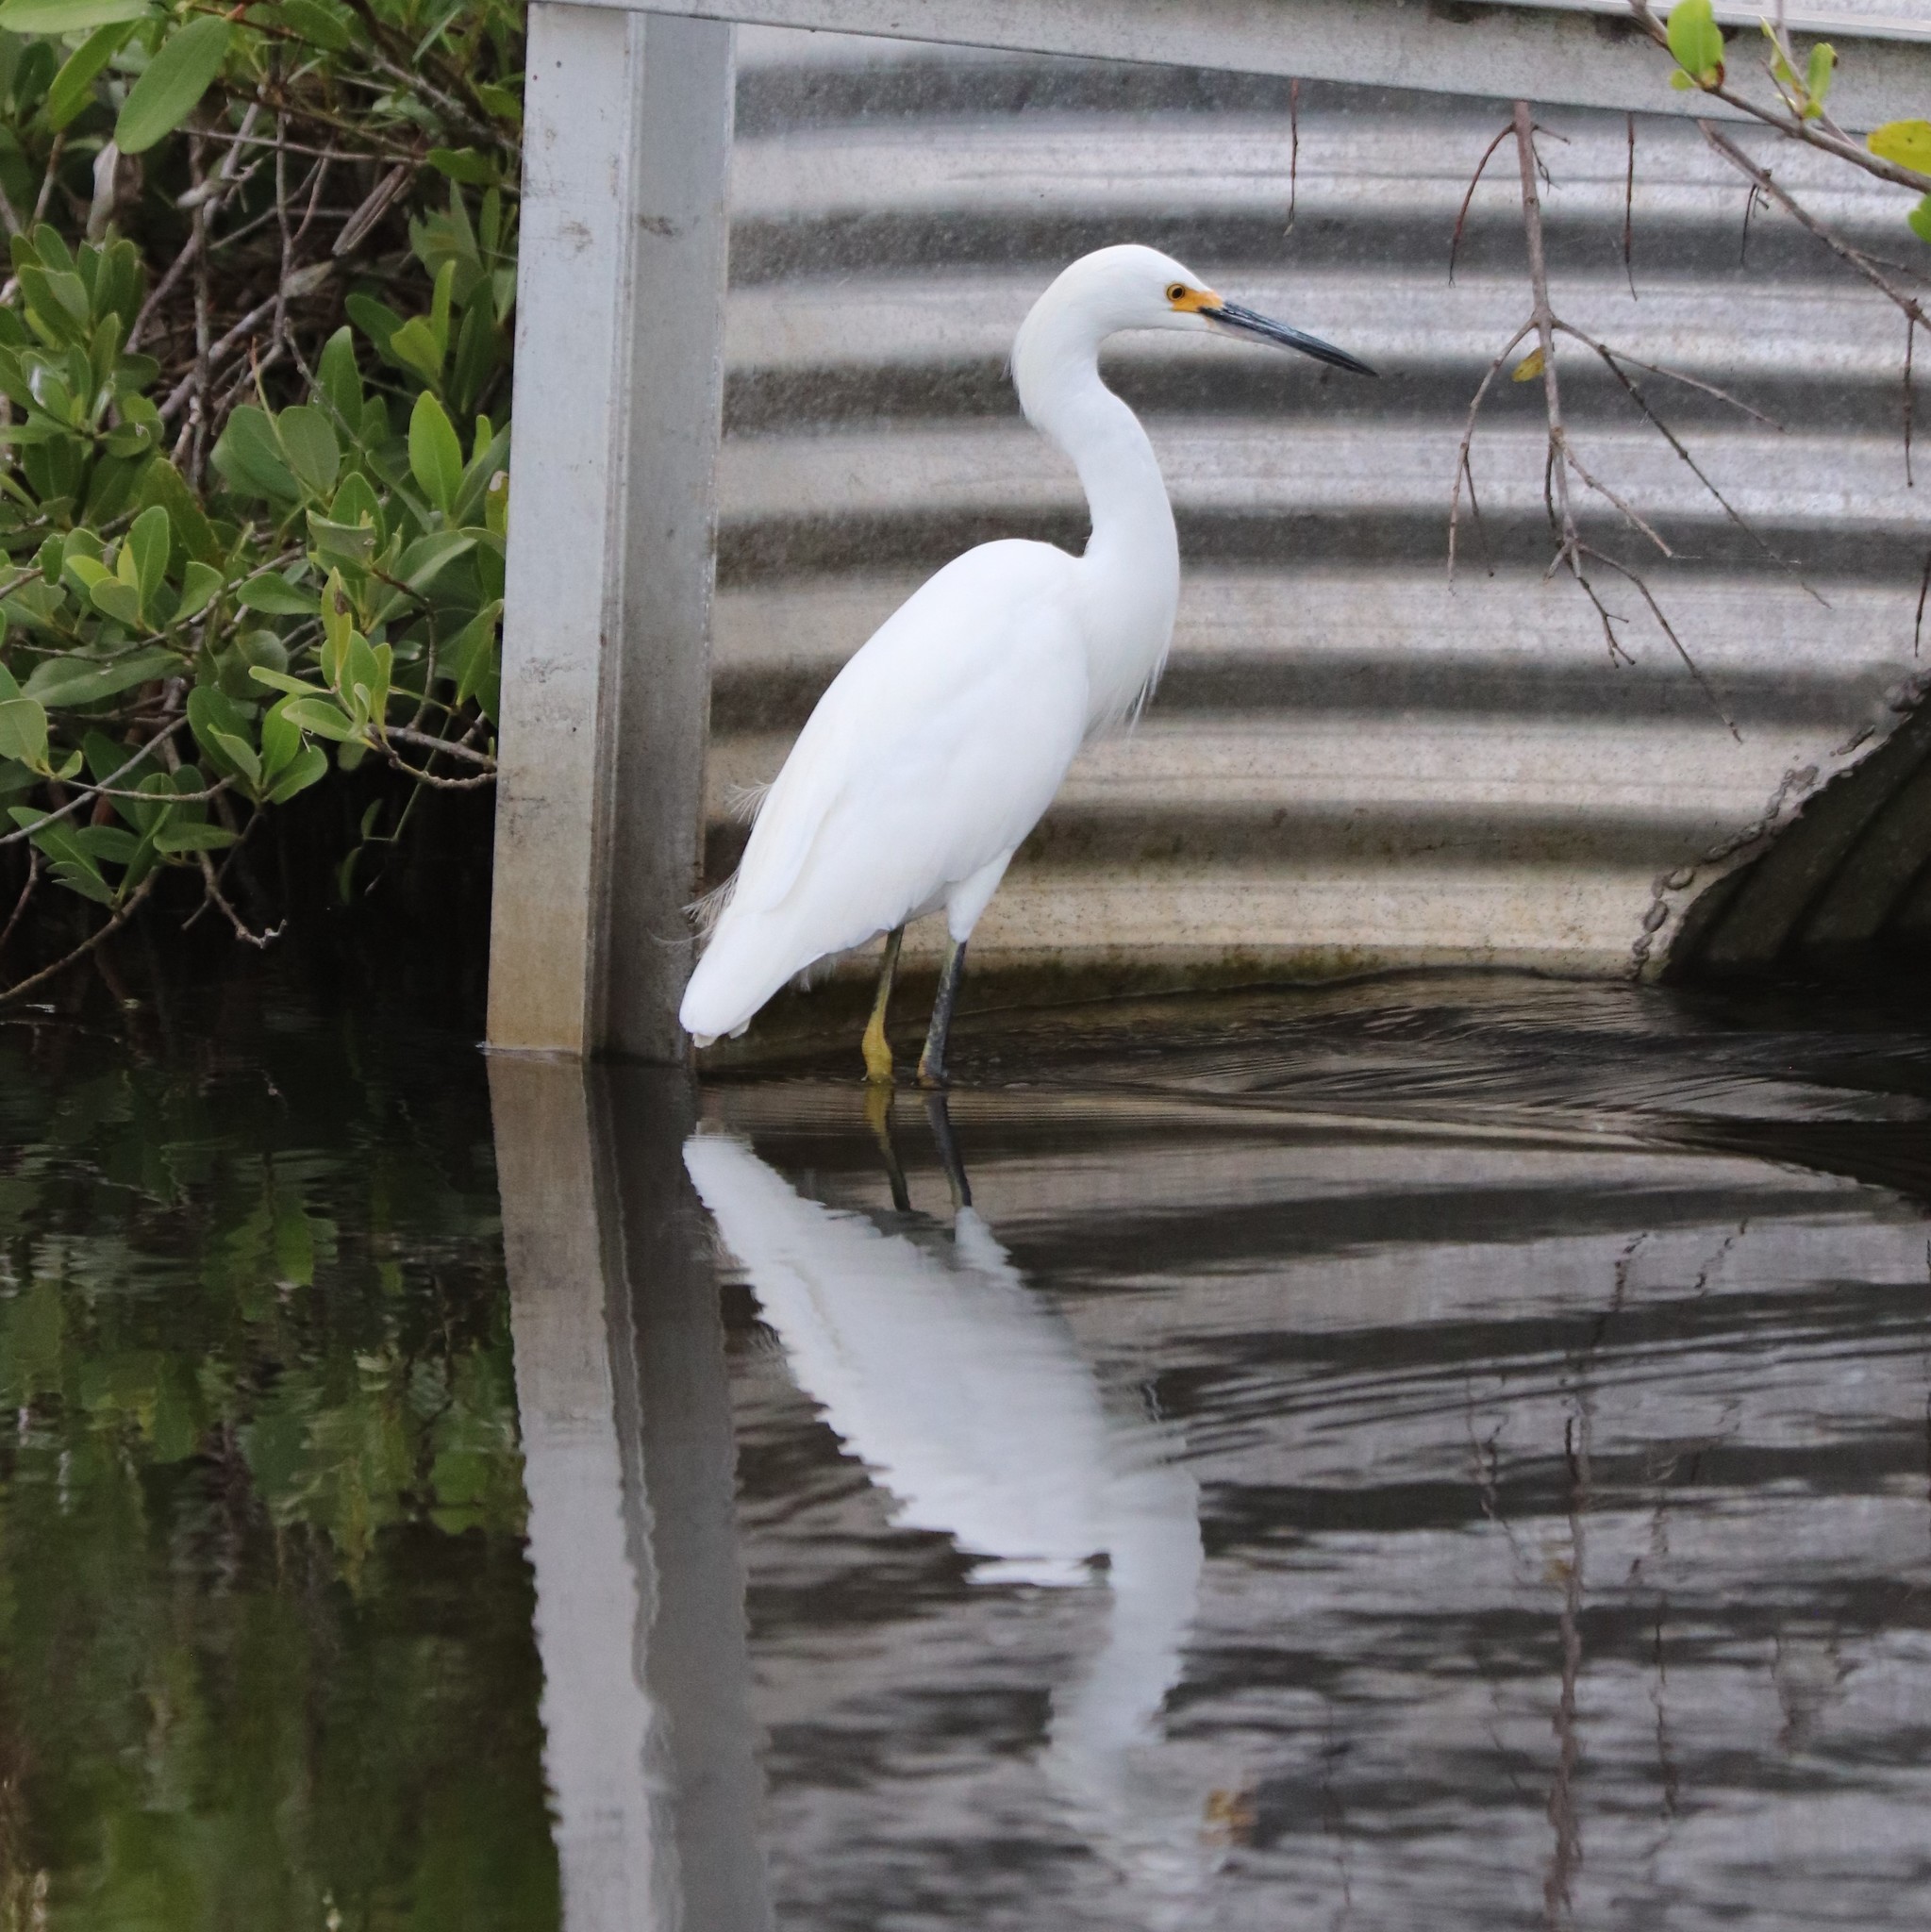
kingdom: Animalia
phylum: Chordata
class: Aves
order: Pelecaniformes
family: Ardeidae
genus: Egretta
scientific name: Egretta thula
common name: Snowy egret
